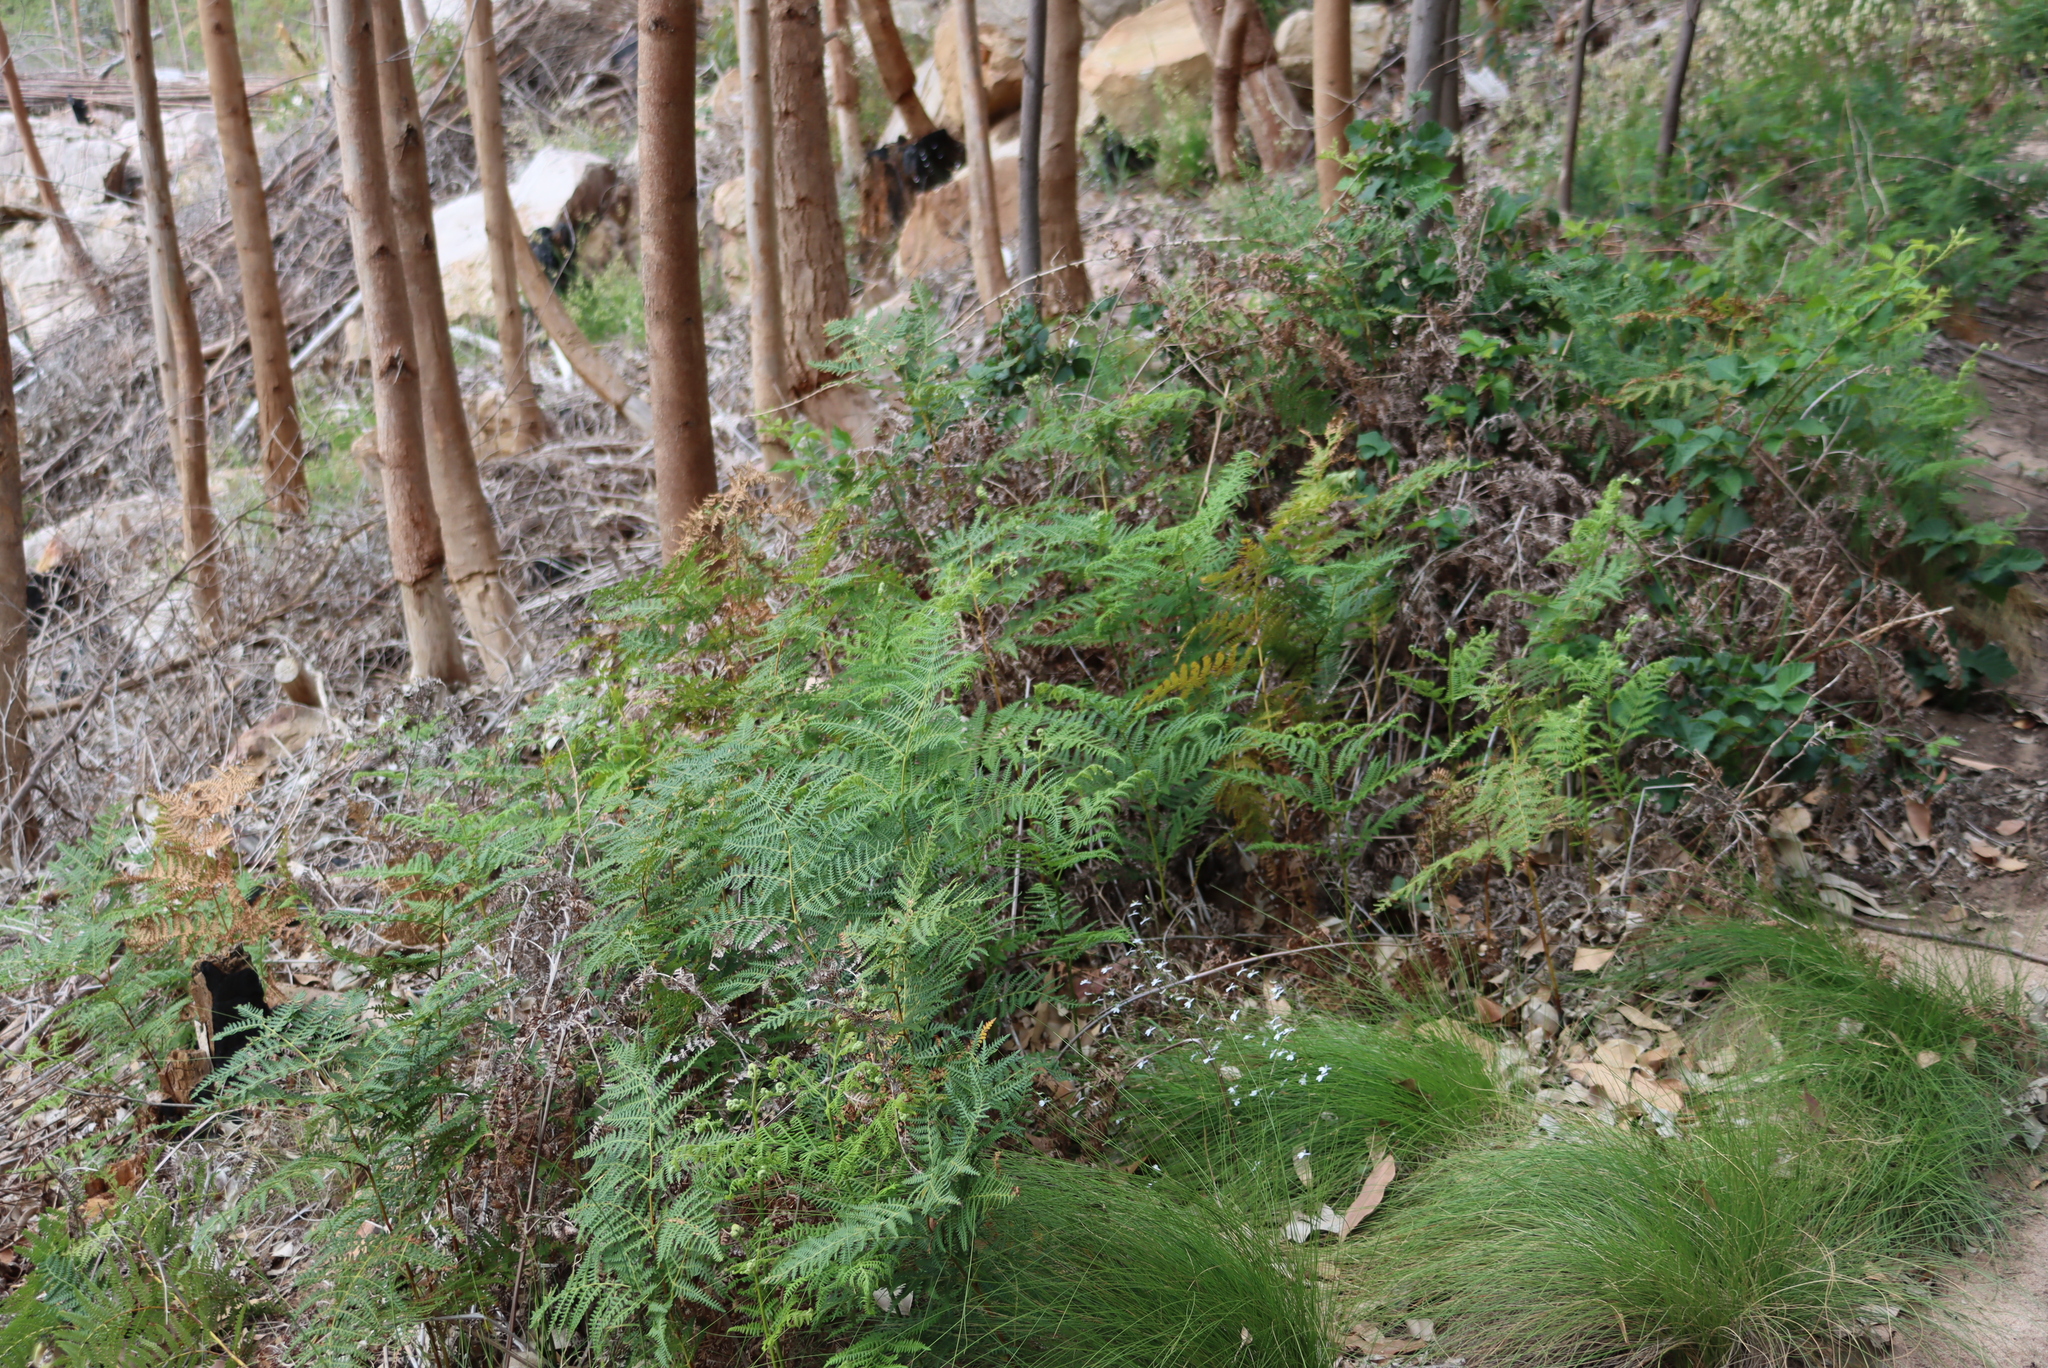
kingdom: Plantae
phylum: Tracheophyta
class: Polypodiopsida
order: Polypodiales
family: Dennstaedtiaceae
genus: Pteridium
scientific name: Pteridium aquilinum
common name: Bracken
